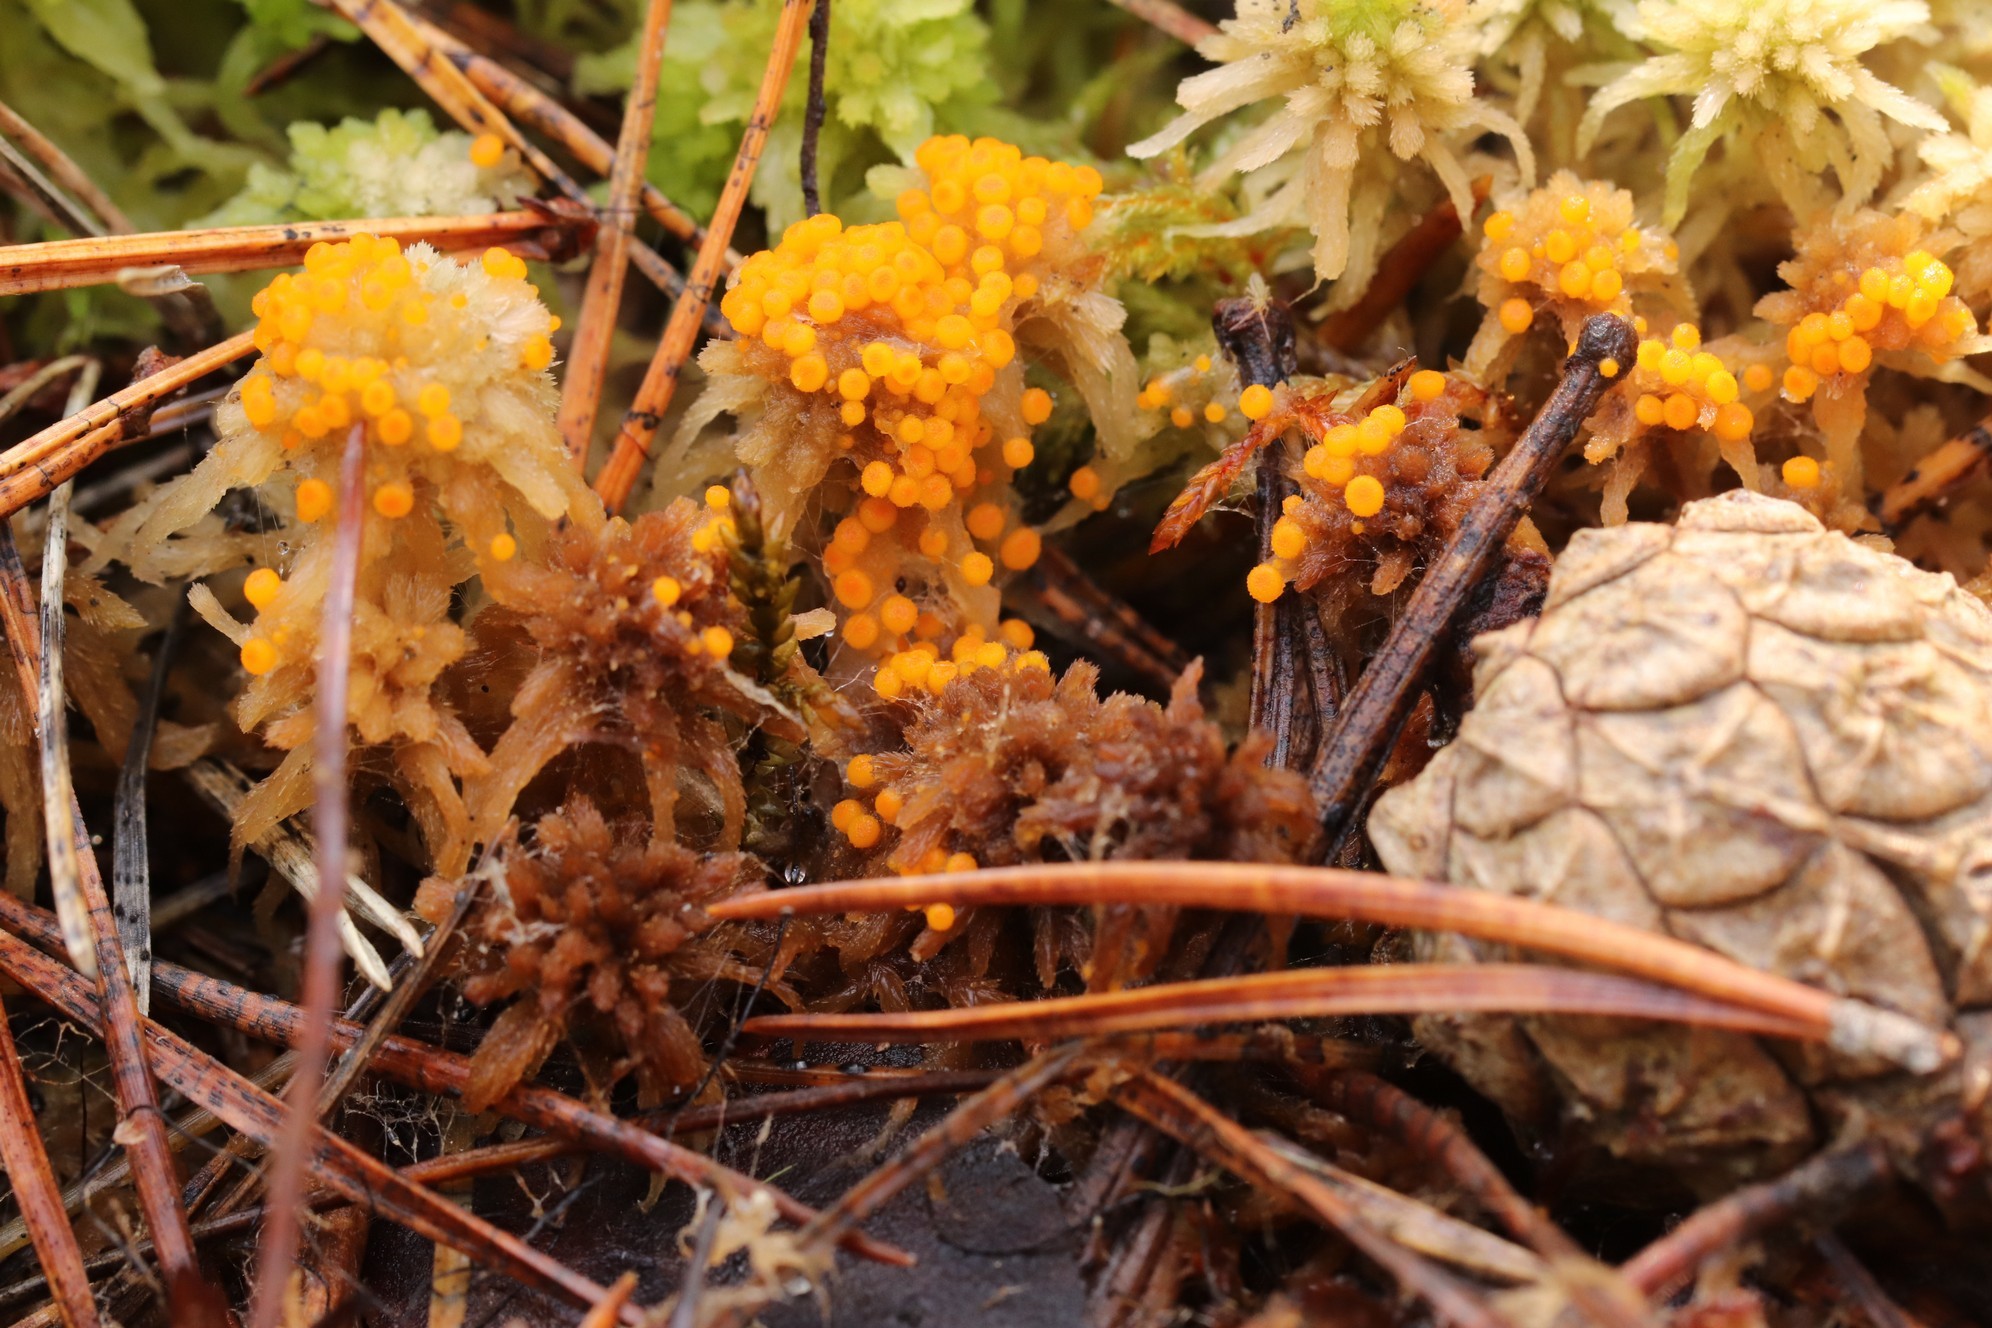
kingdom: Fungi
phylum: Ascomycota
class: Pezizomycetes
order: Pezizales
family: Pyronemataceae
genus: Byssonectria
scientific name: Byssonectria terrestris
